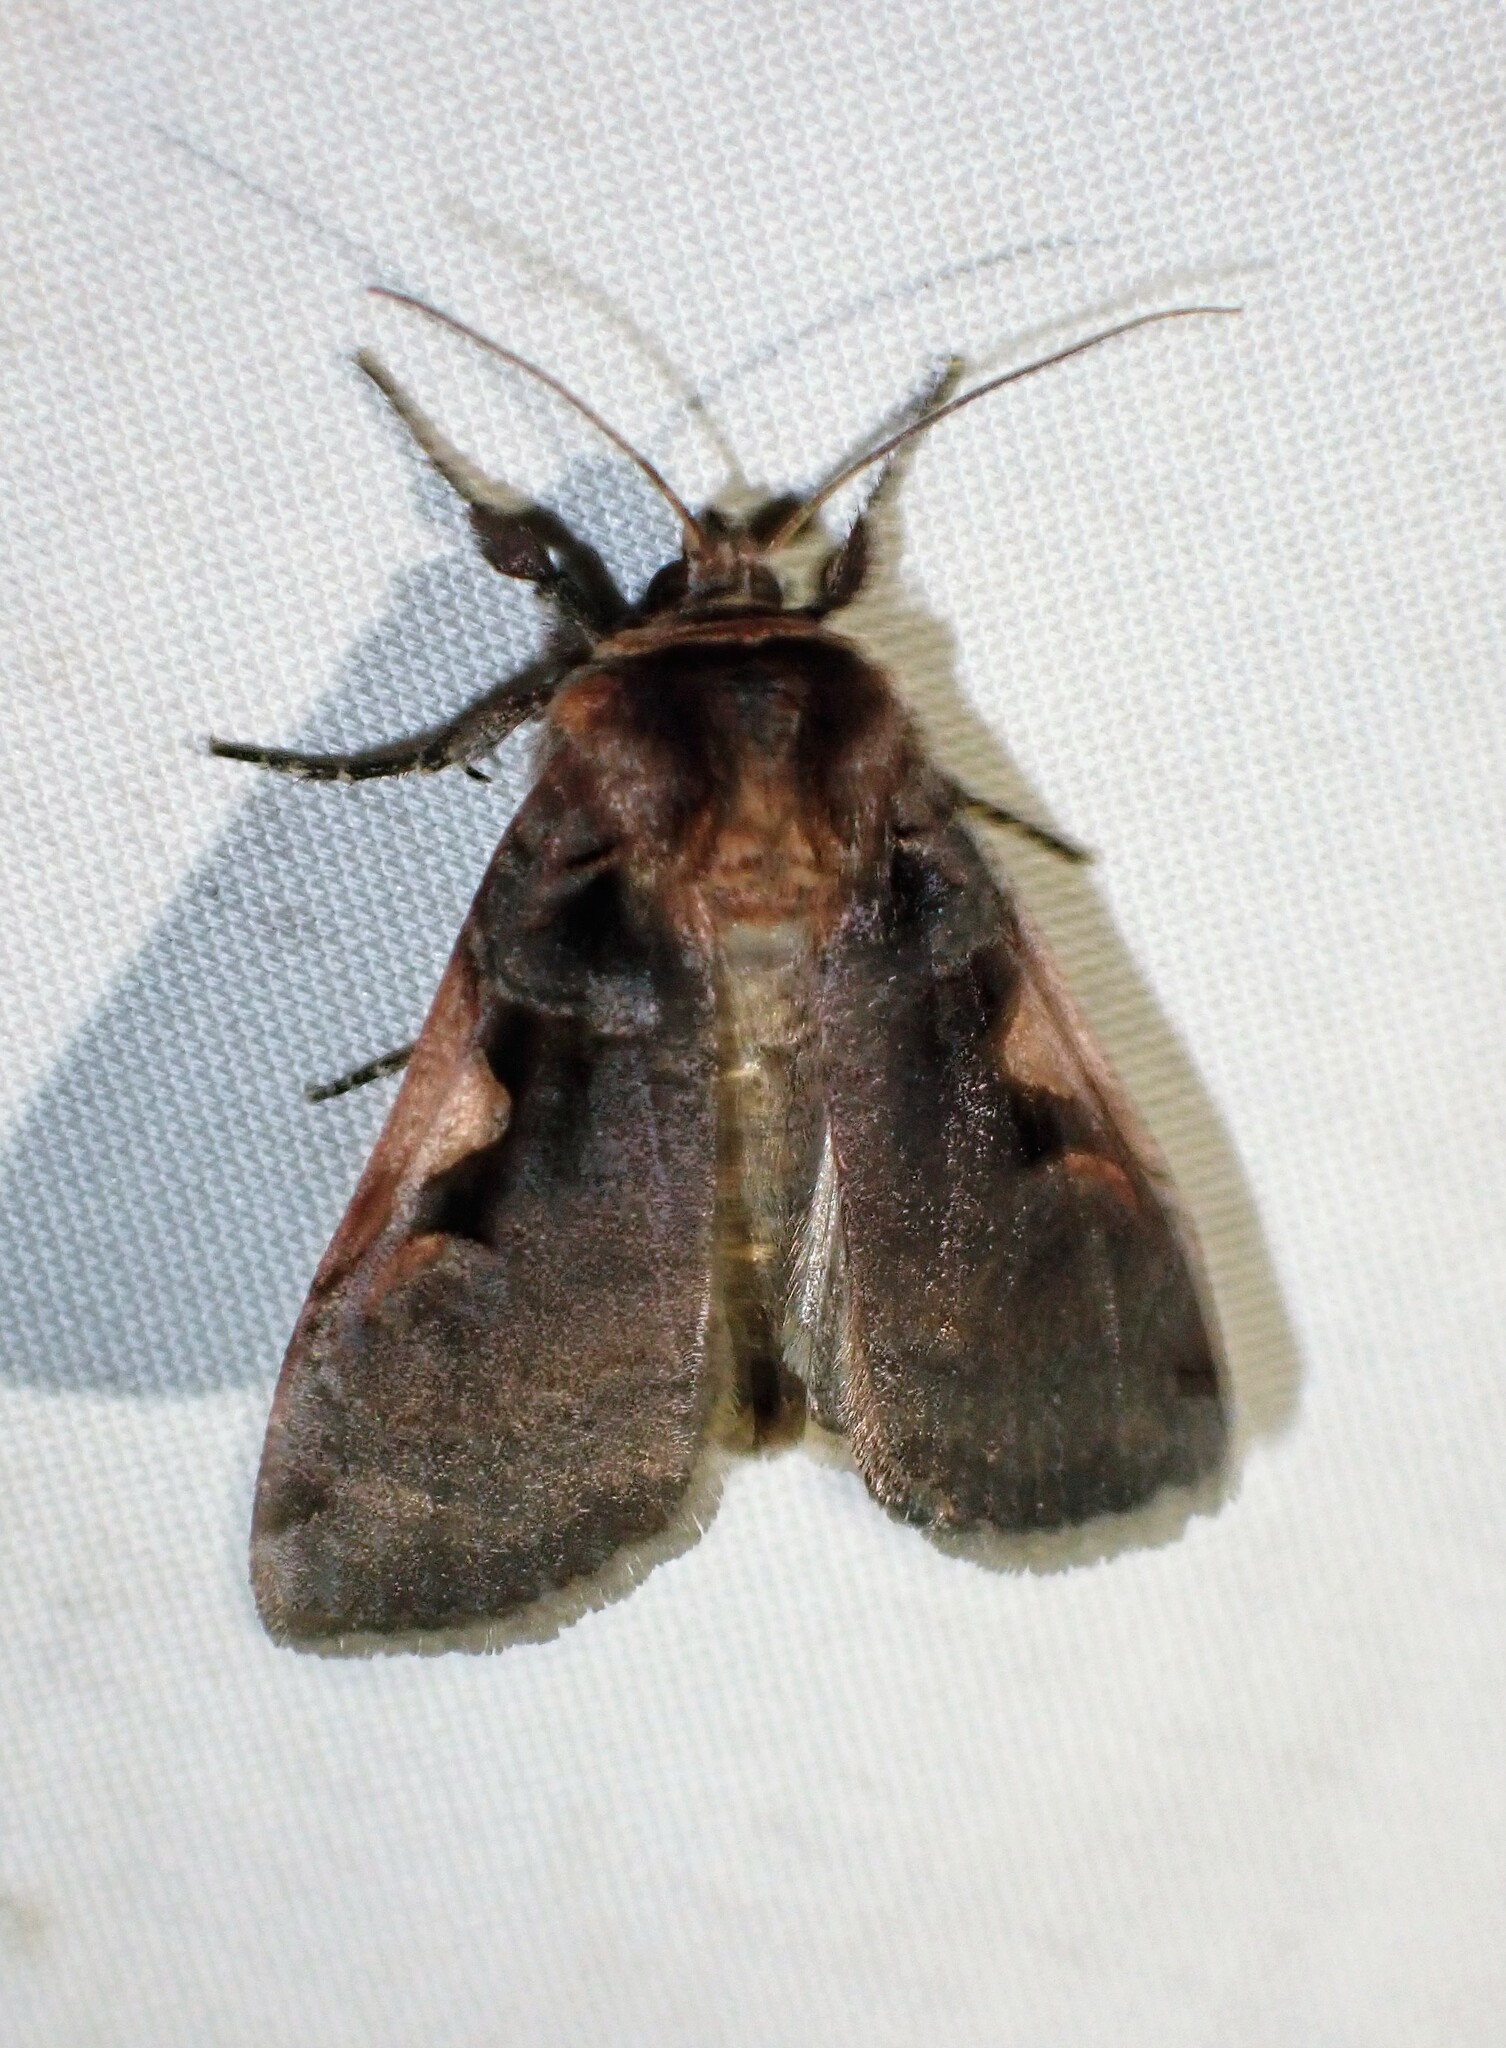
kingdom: Animalia
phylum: Arthropoda
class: Insecta
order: Lepidoptera
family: Noctuidae
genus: Xestia
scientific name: Xestia
